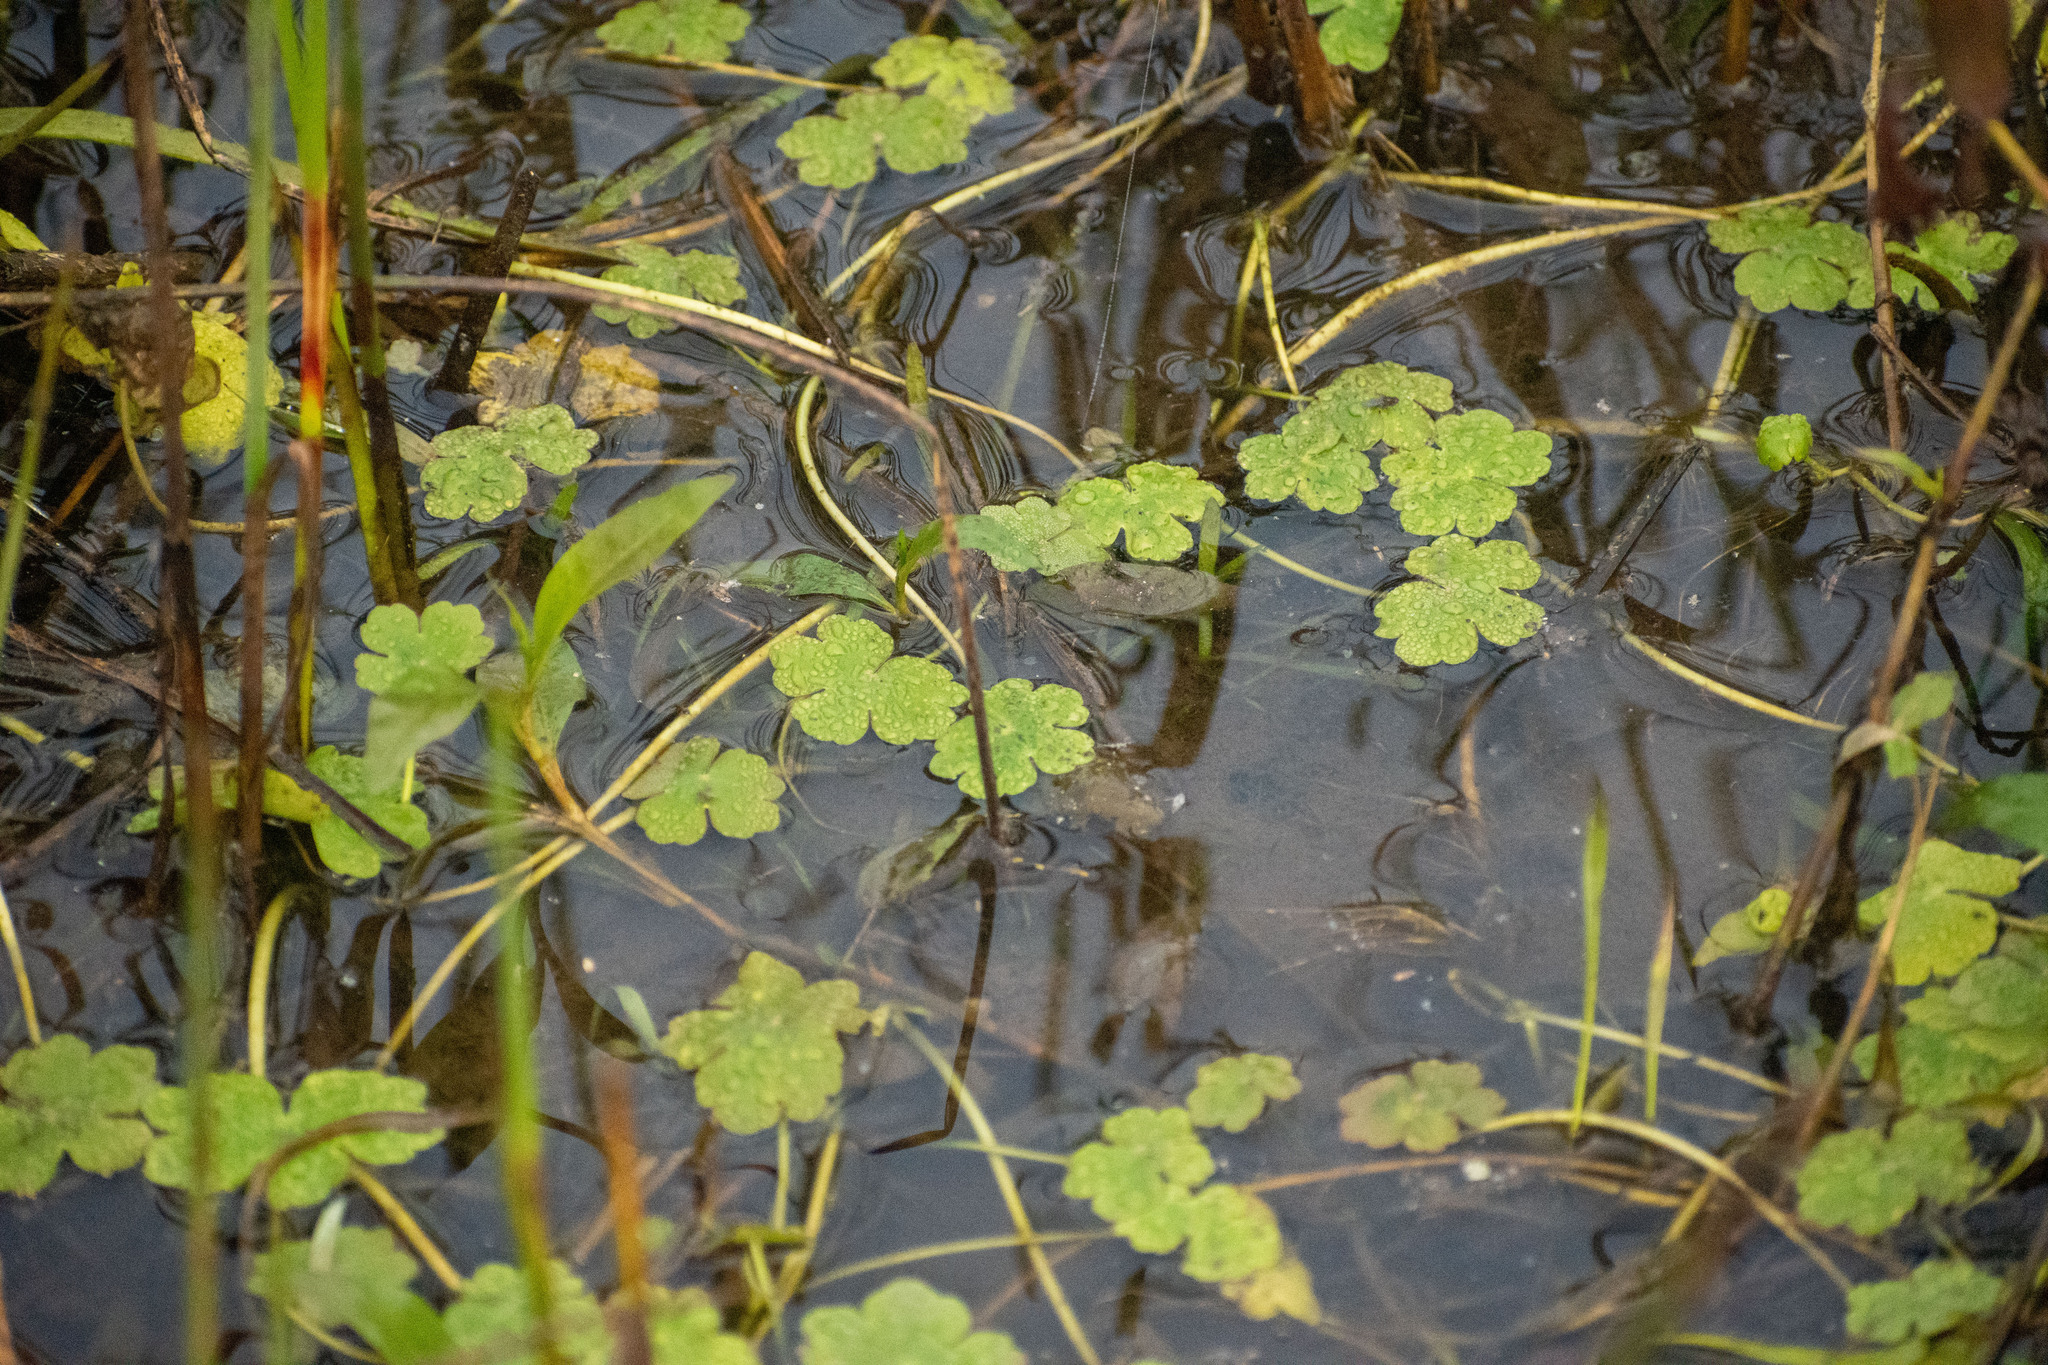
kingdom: Plantae
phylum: Tracheophyta
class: Magnoliopsida
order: Apiales
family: Araliaceae
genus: Hydrocotyle
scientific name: Hydrocotyle ranunculoides
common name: Floating pennywort
